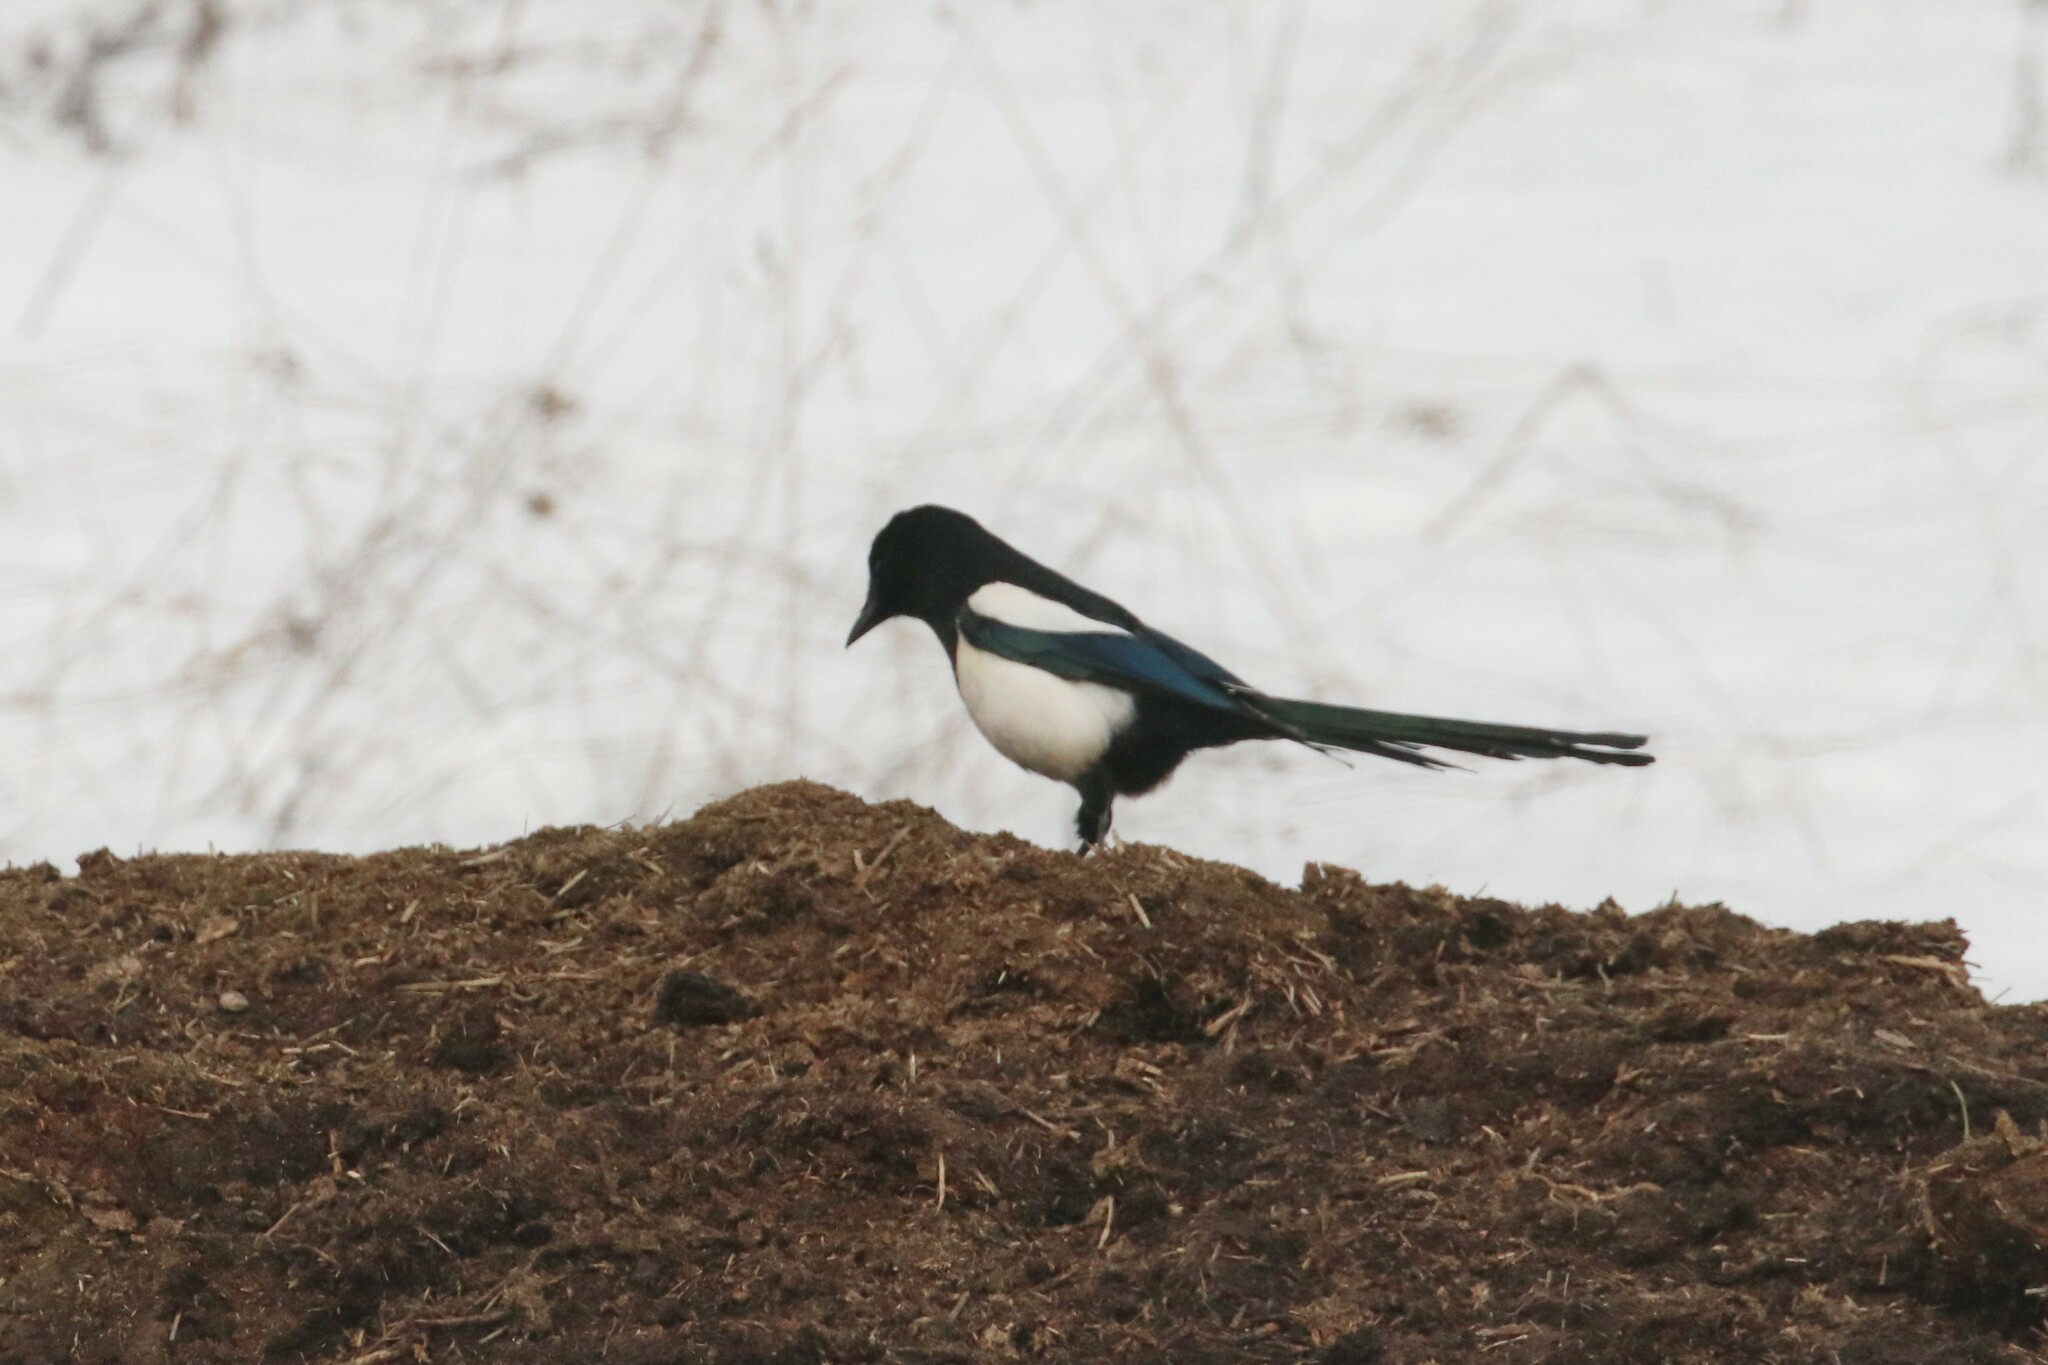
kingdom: Animalia
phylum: Chordata
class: Aves
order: Passeriformes
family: Corvidae
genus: Pica
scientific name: Pica pica
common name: Eurasian magpie
